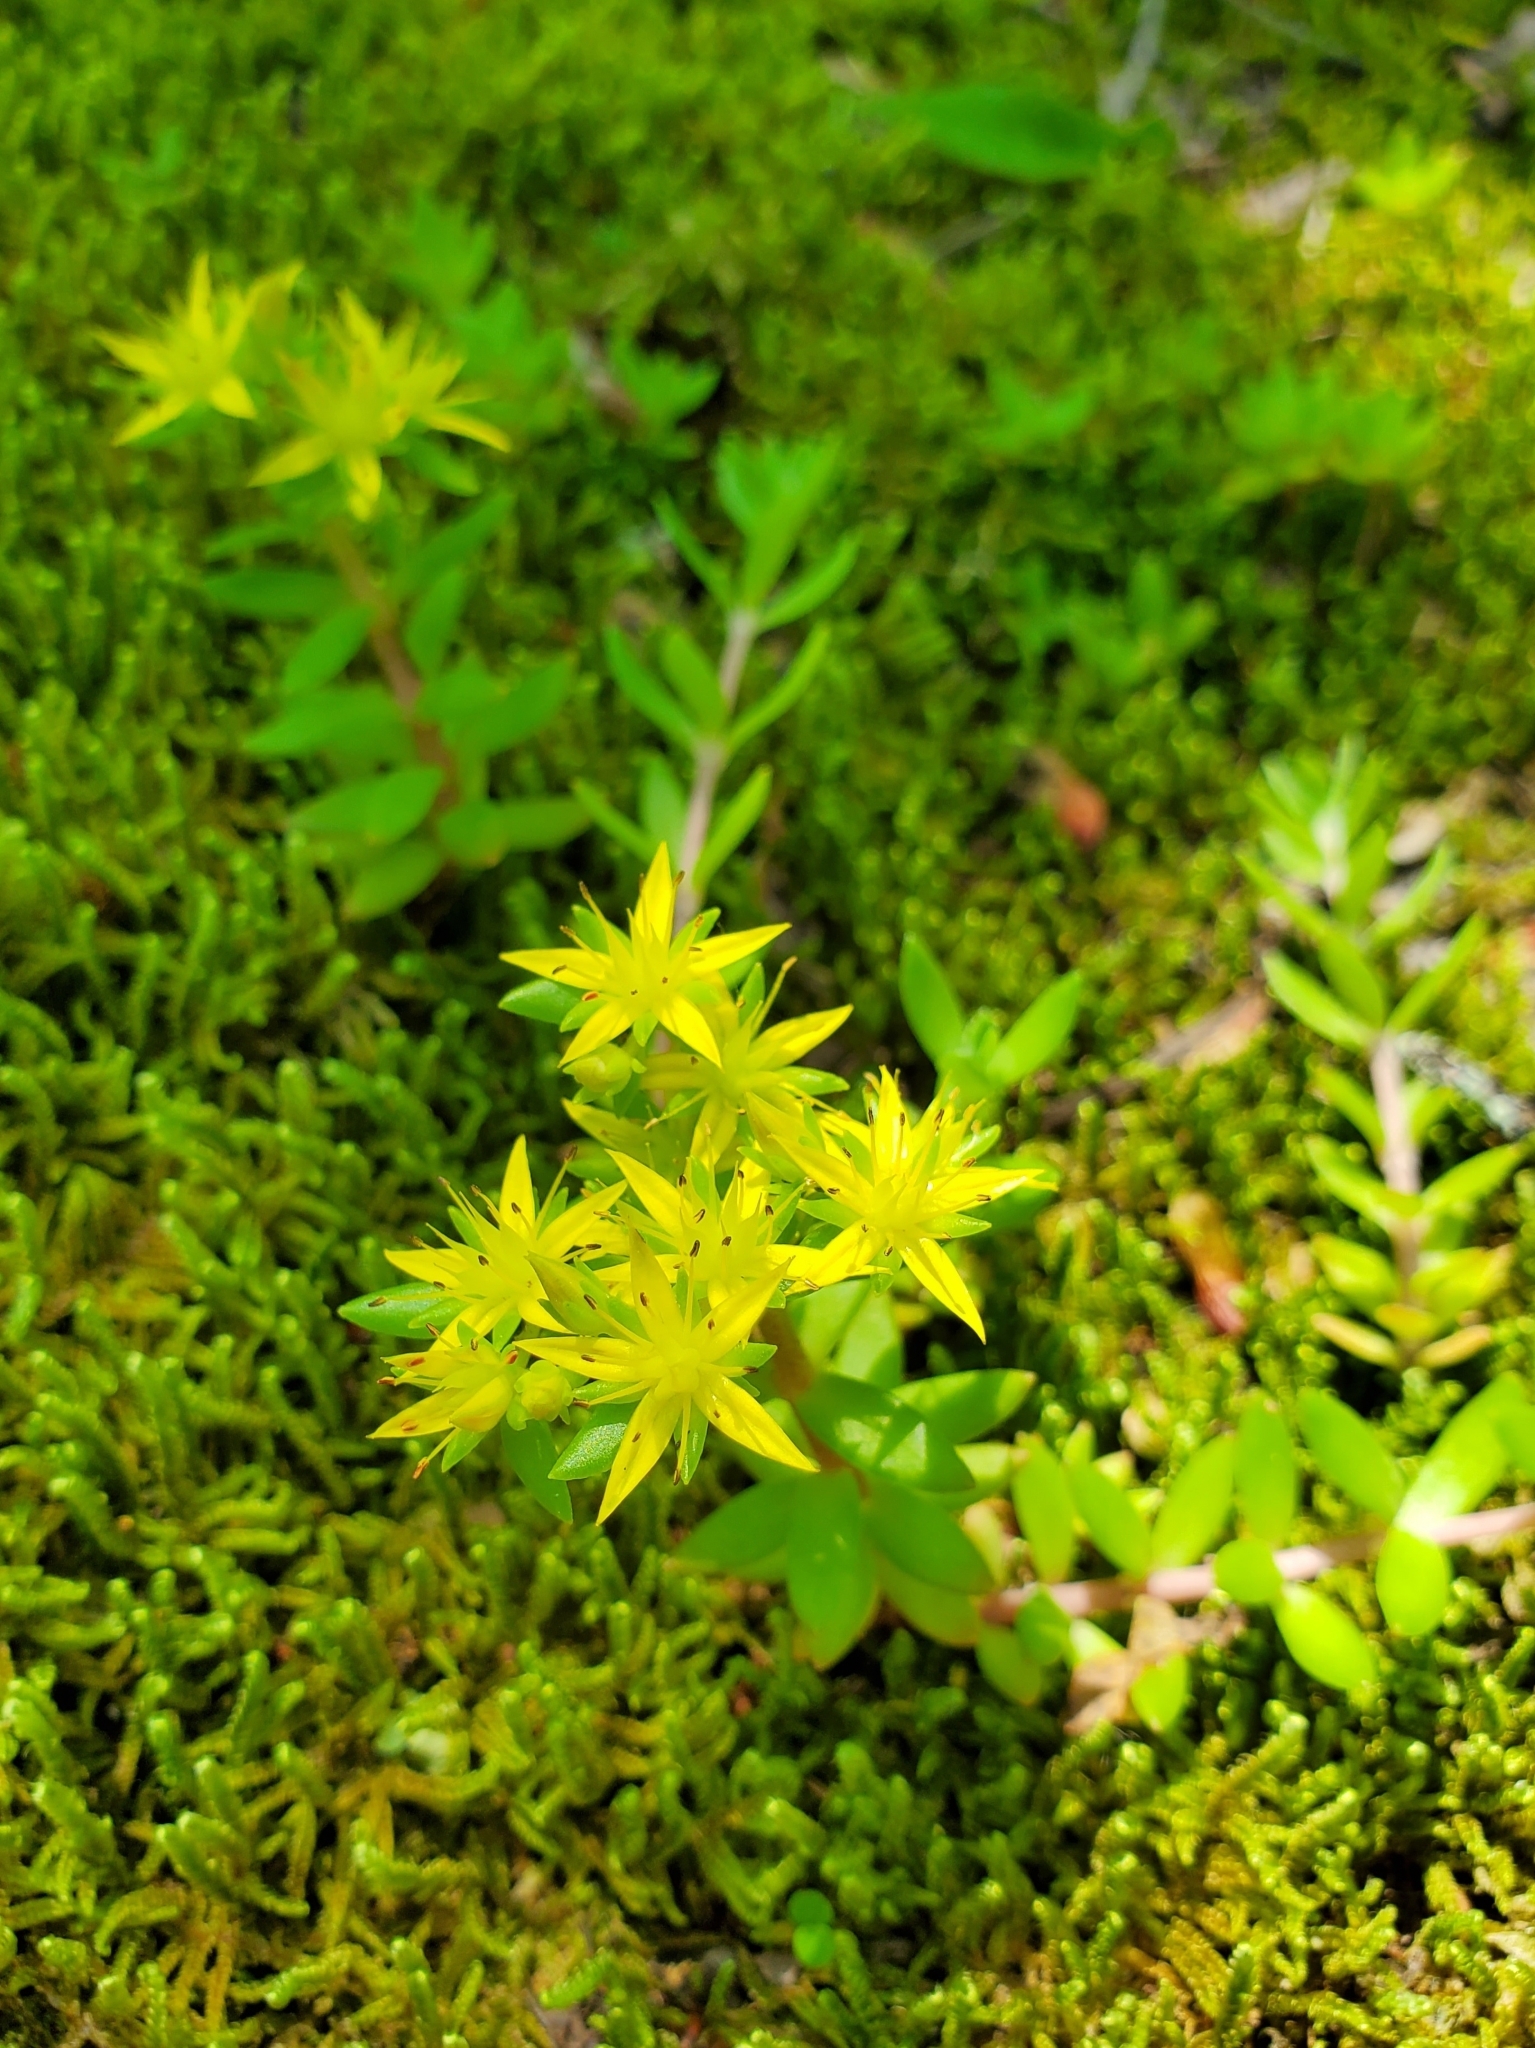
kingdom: Plantae
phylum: Tracheophyta
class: Magnoliopsida
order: Saxifragales
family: Crassulaceae
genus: Sedum
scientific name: Sedum sarmentosum
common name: Stringy stonecrop
